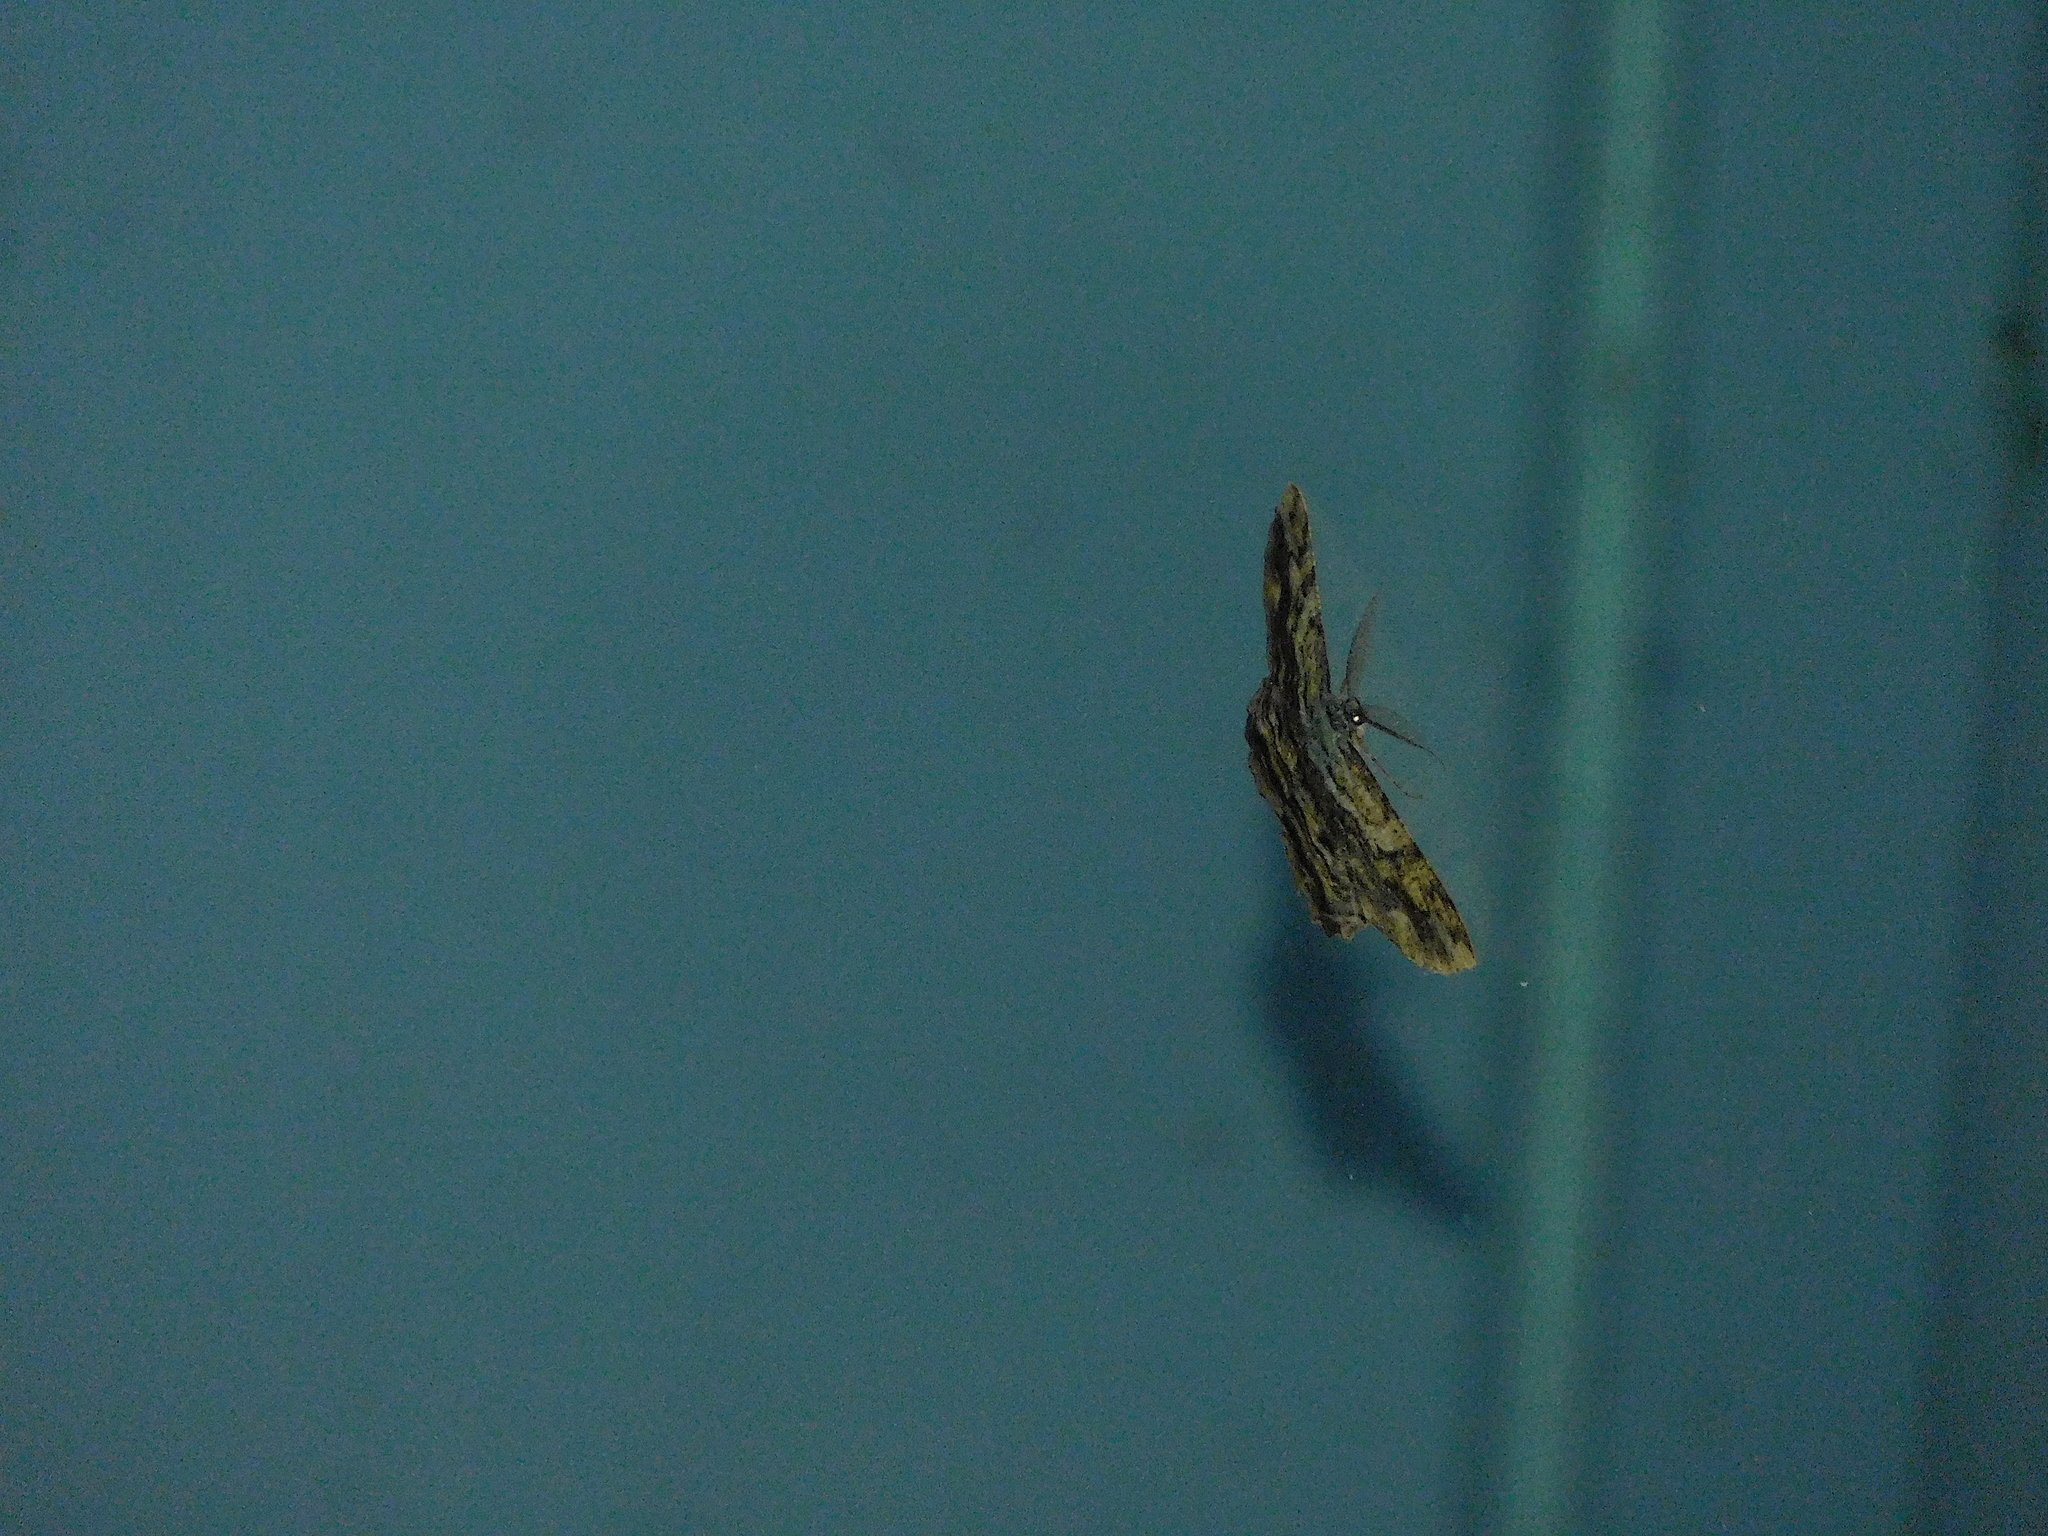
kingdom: Animalia
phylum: Arthropoda
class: Insecta
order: Lepidoptera
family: Geometridae
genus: Scioglyptis
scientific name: Scioglyptis lyciaria
